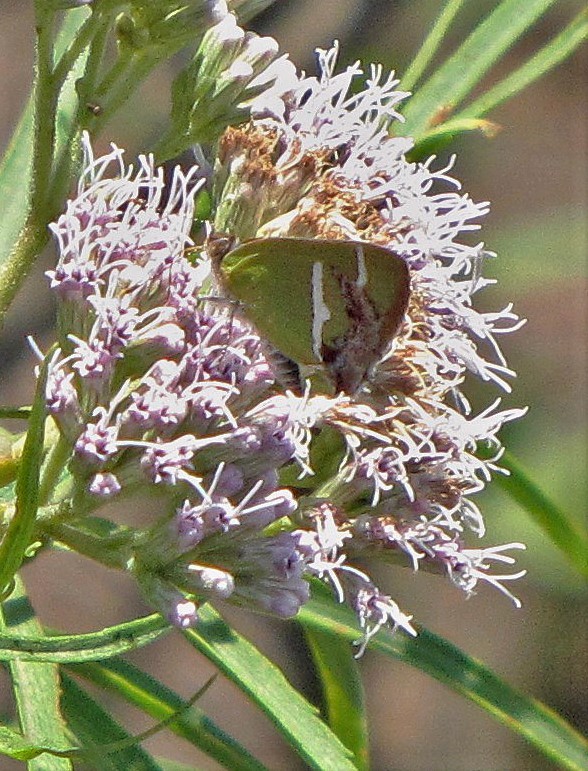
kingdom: Animalia
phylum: Arthropoda
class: Insecta
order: Lepidoptera
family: Lycaenidae
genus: Chlorostrymon
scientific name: Chlorostrymon simaethis
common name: Silver-banded hairstreak
